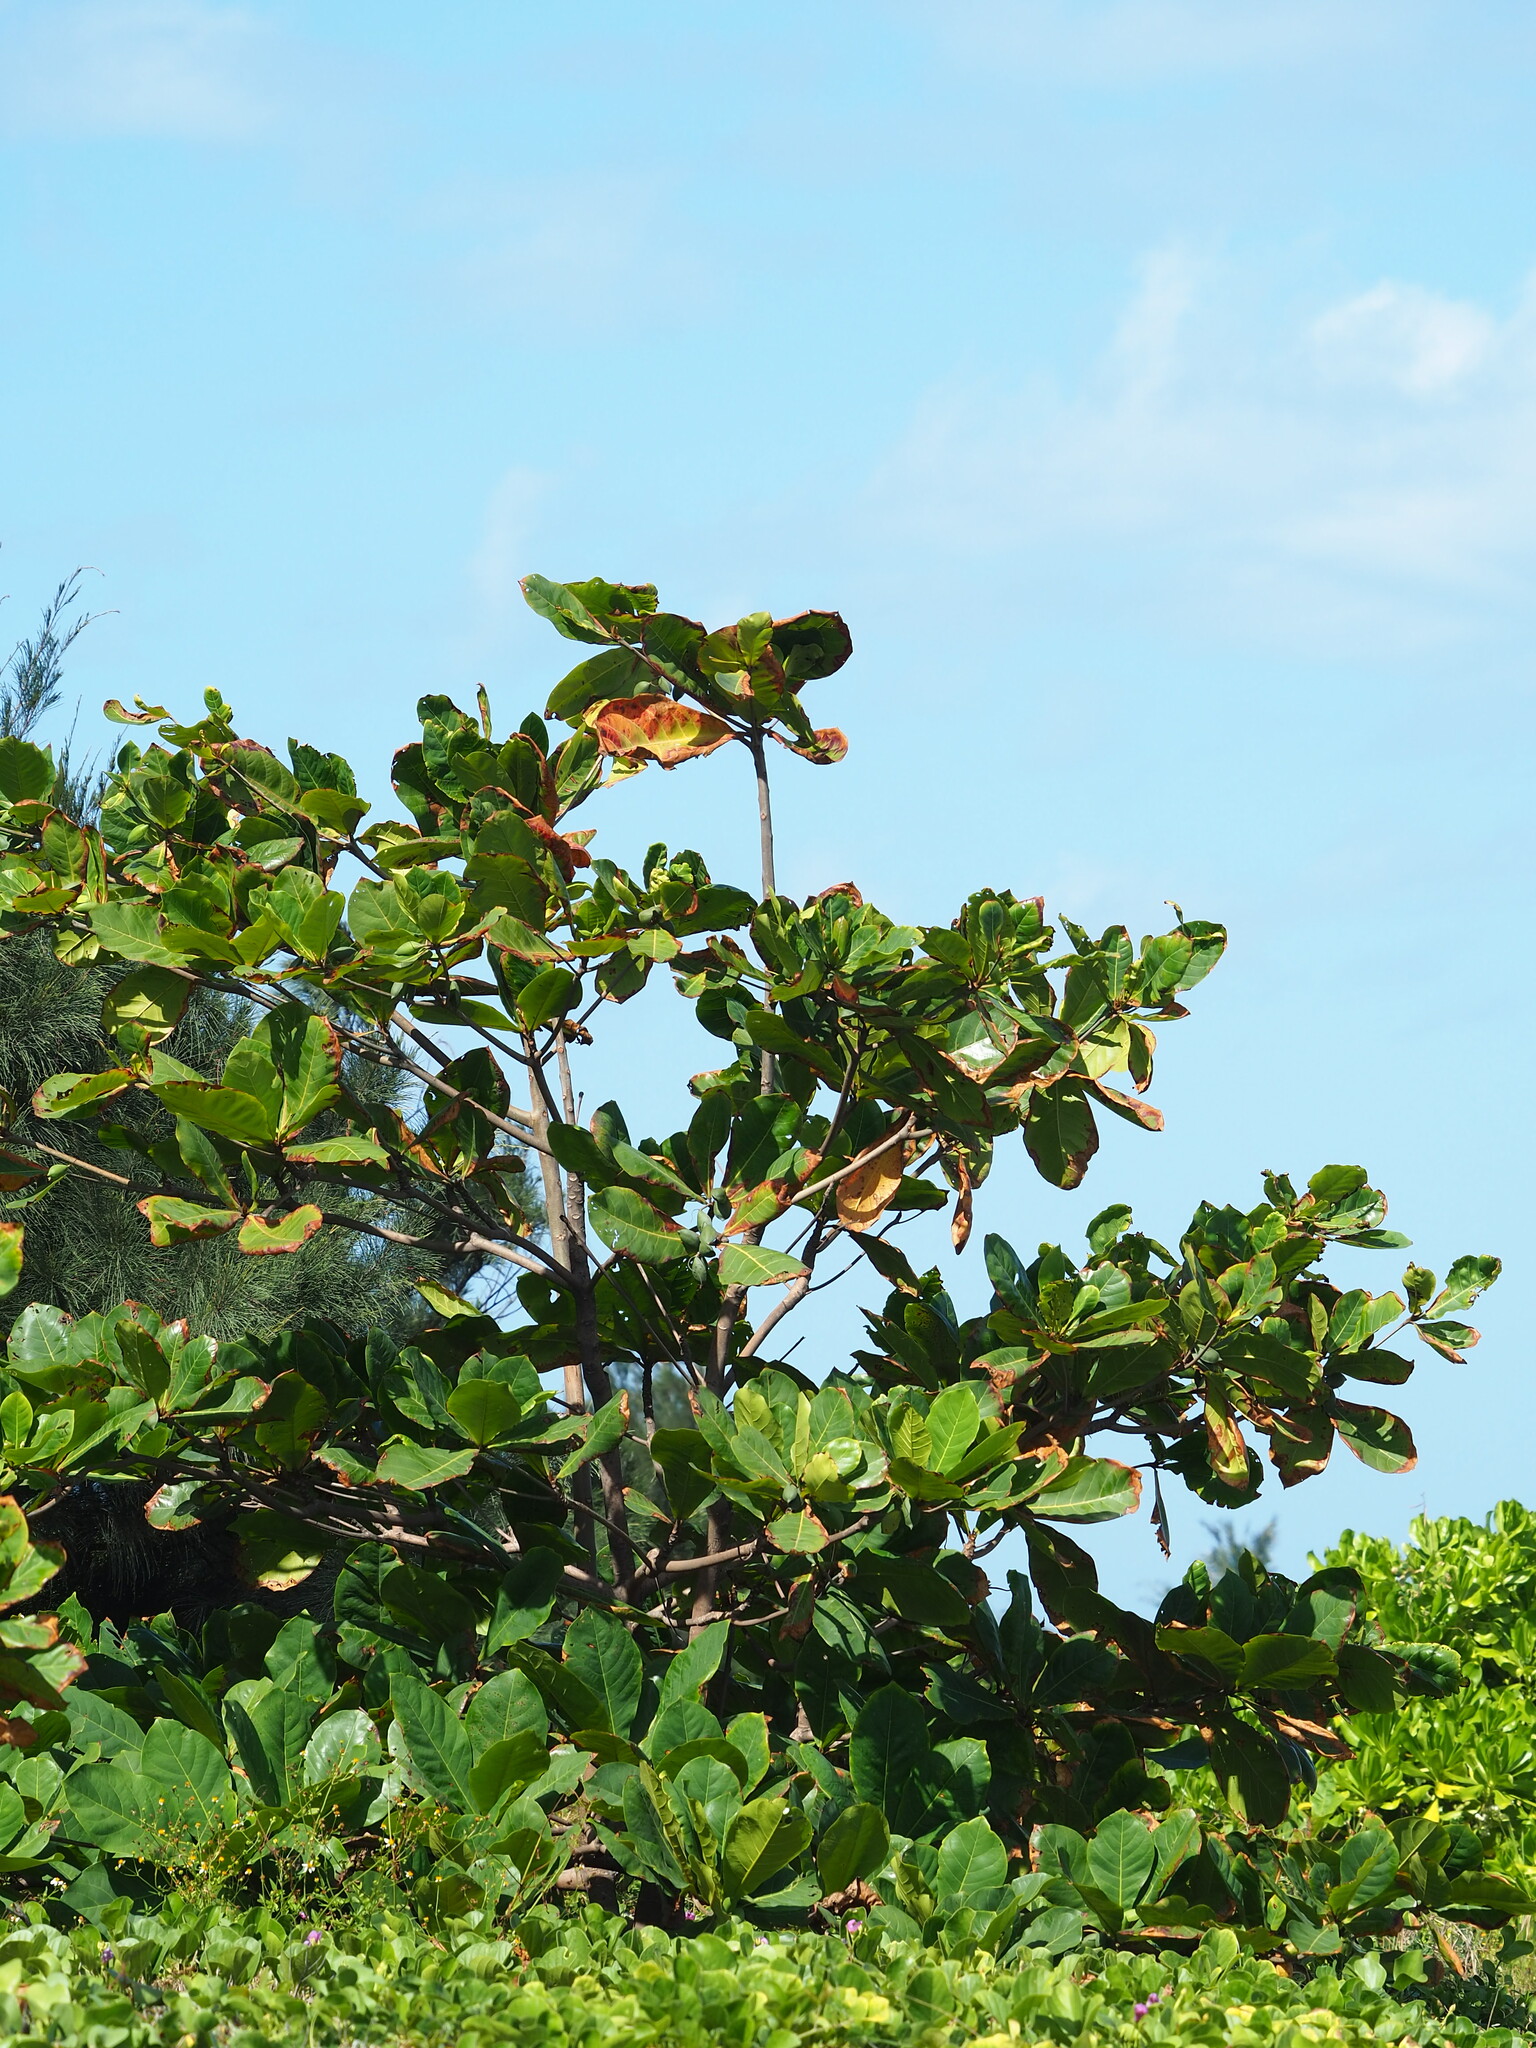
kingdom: Plantae
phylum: Tracheophyta
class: Magnoliopsida
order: Myrtales
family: Combretaceae
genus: Terminalia
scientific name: Terminalia catappa
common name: Tropical almond
